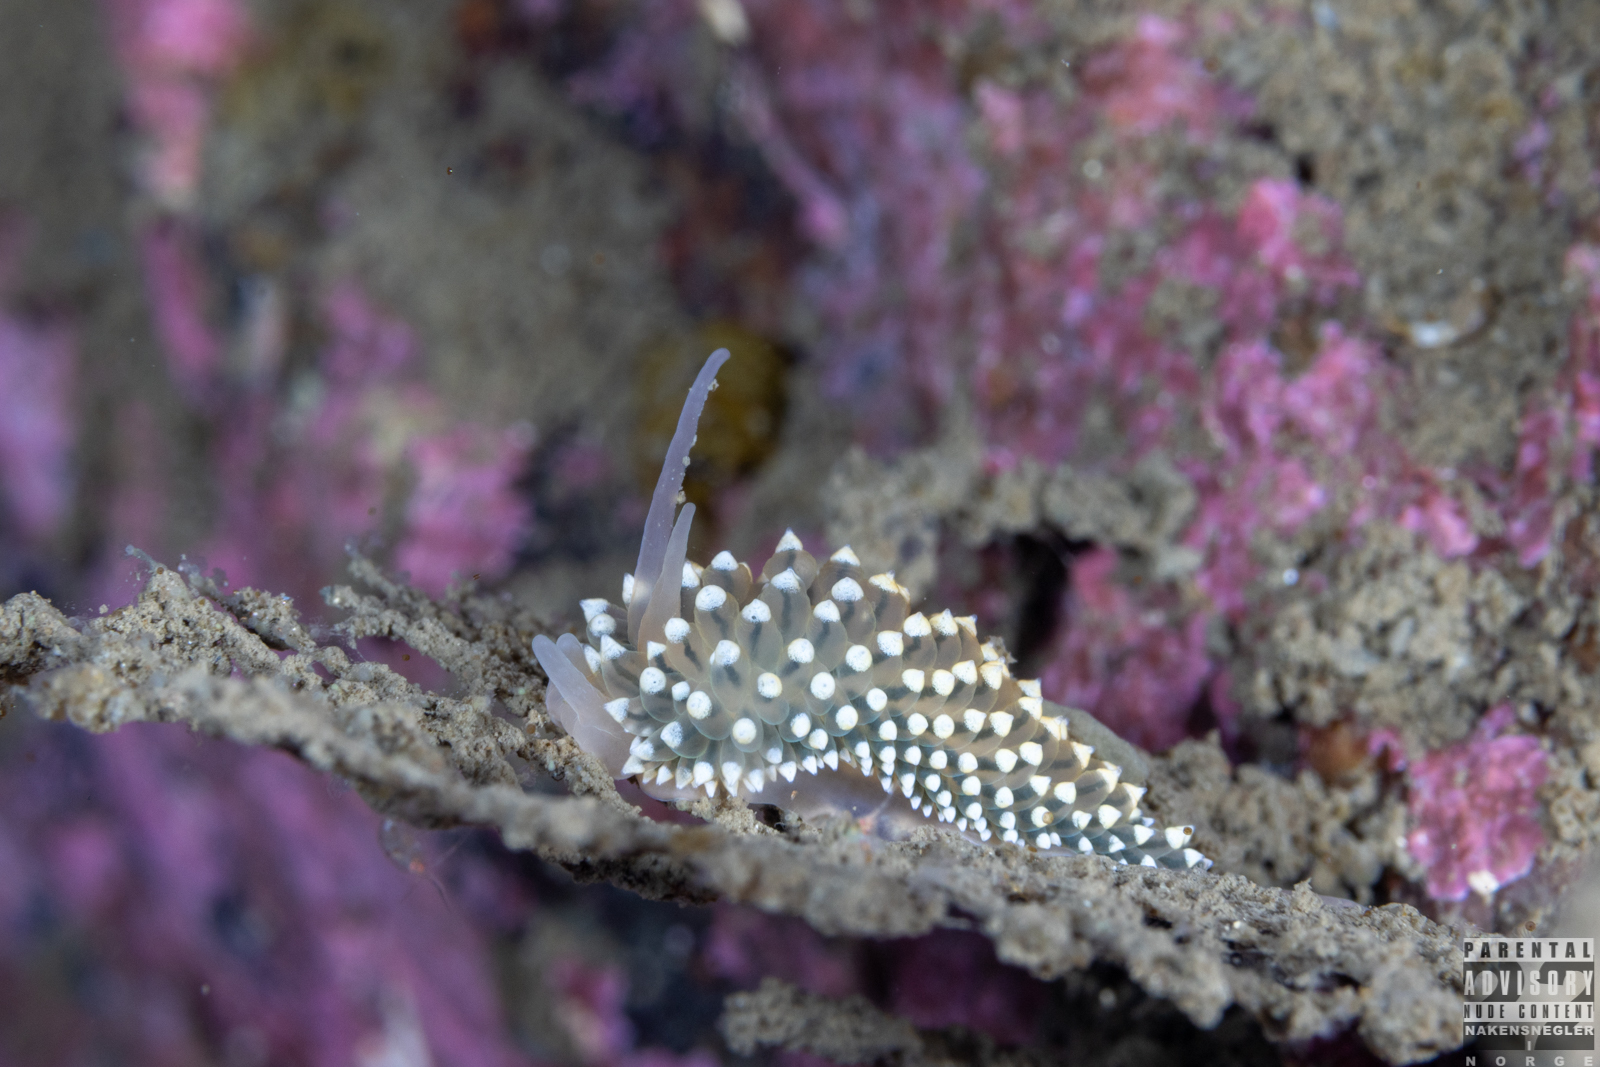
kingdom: Animalia
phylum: Mollusca
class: Gastropoda
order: Nudibranchia
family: Eubranchidae
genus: Eubranchus
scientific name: Eubranchus tricolor
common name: Painted balloon aeolis
